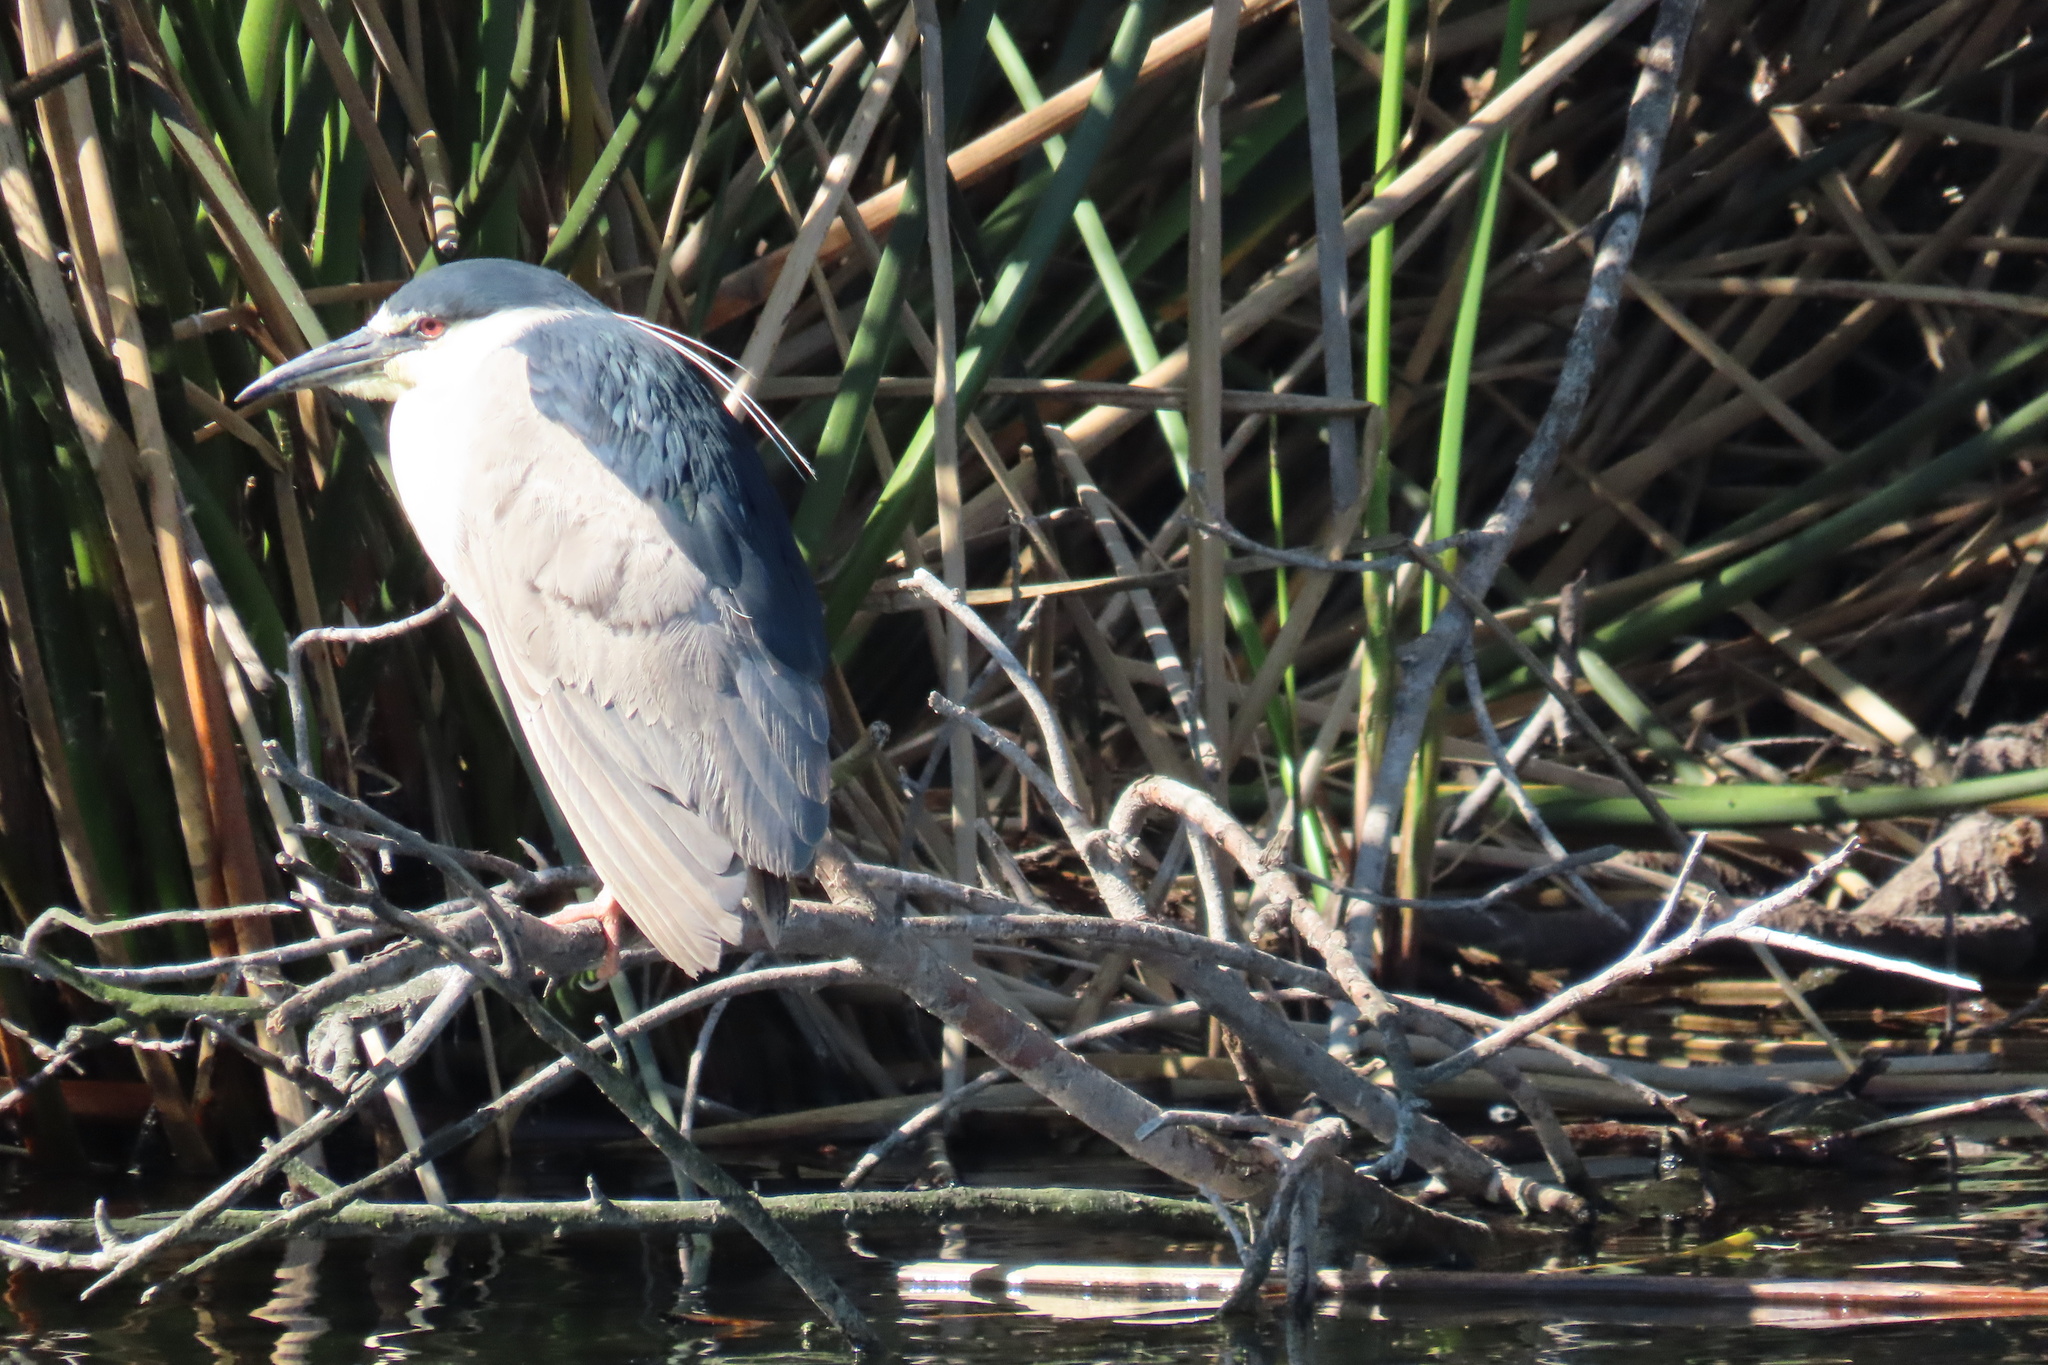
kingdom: Animalia
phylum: Chordata
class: Aves
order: Pelecaniformes
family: Ardeidae
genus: Nycticorax
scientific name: Nycticorax nycticorax
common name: Black-crowned night heron
